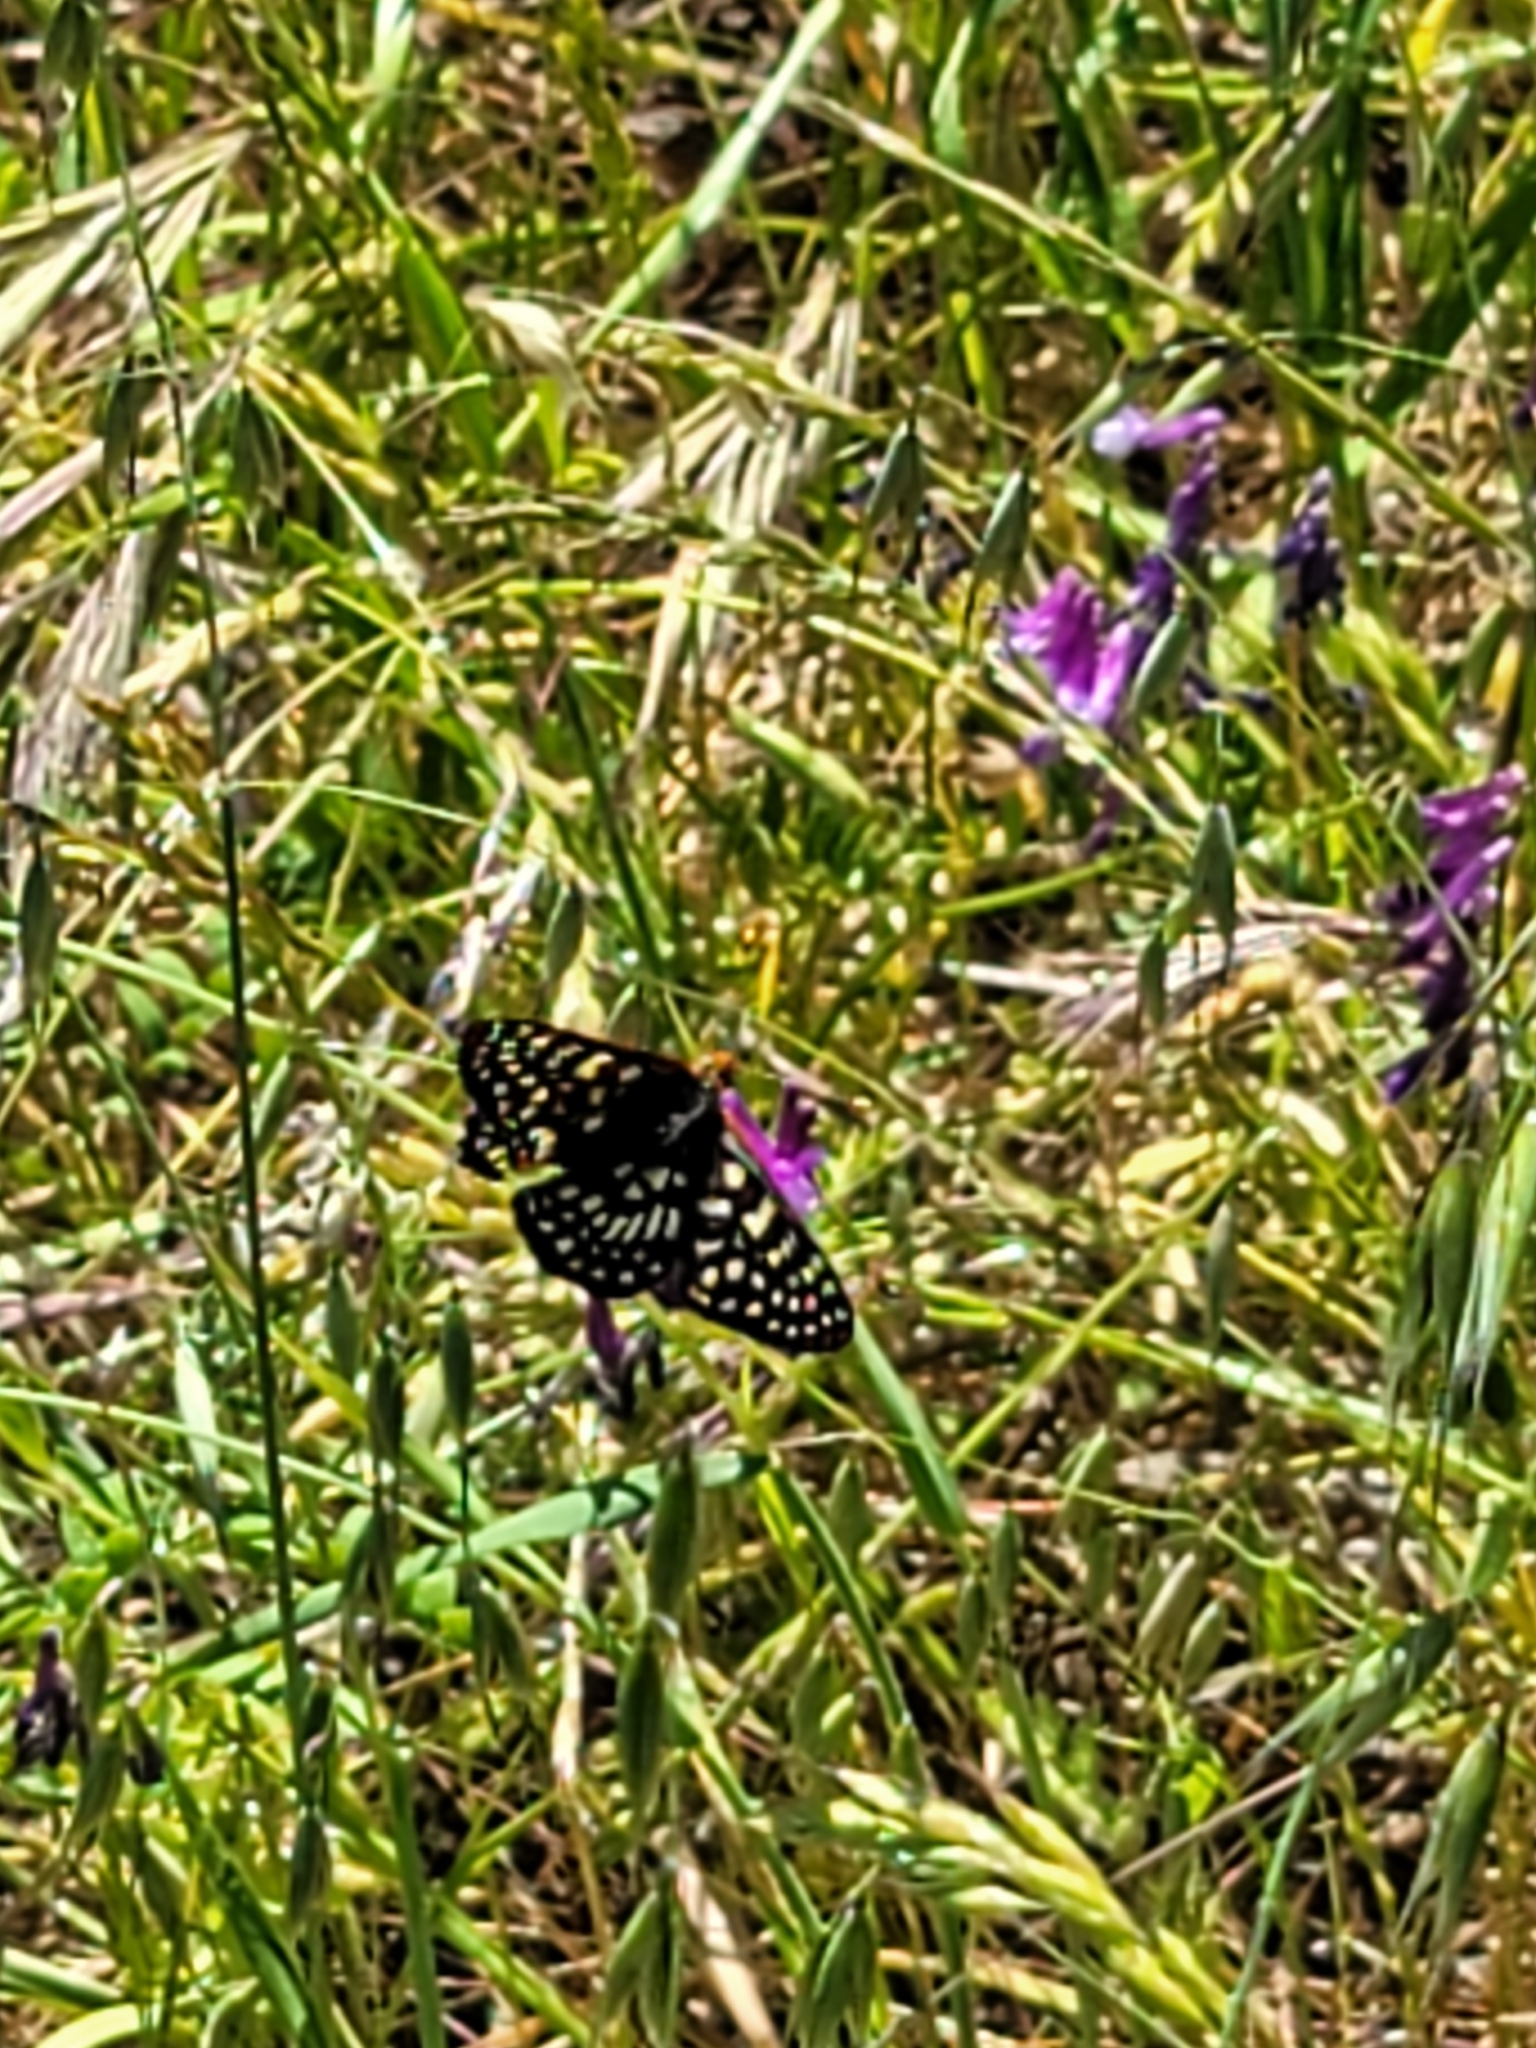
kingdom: Animalia
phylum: Arthropoda
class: Insecta
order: Lepidoptera
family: Nymphalidae
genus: Occidryas
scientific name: Occidryas chalcedona
